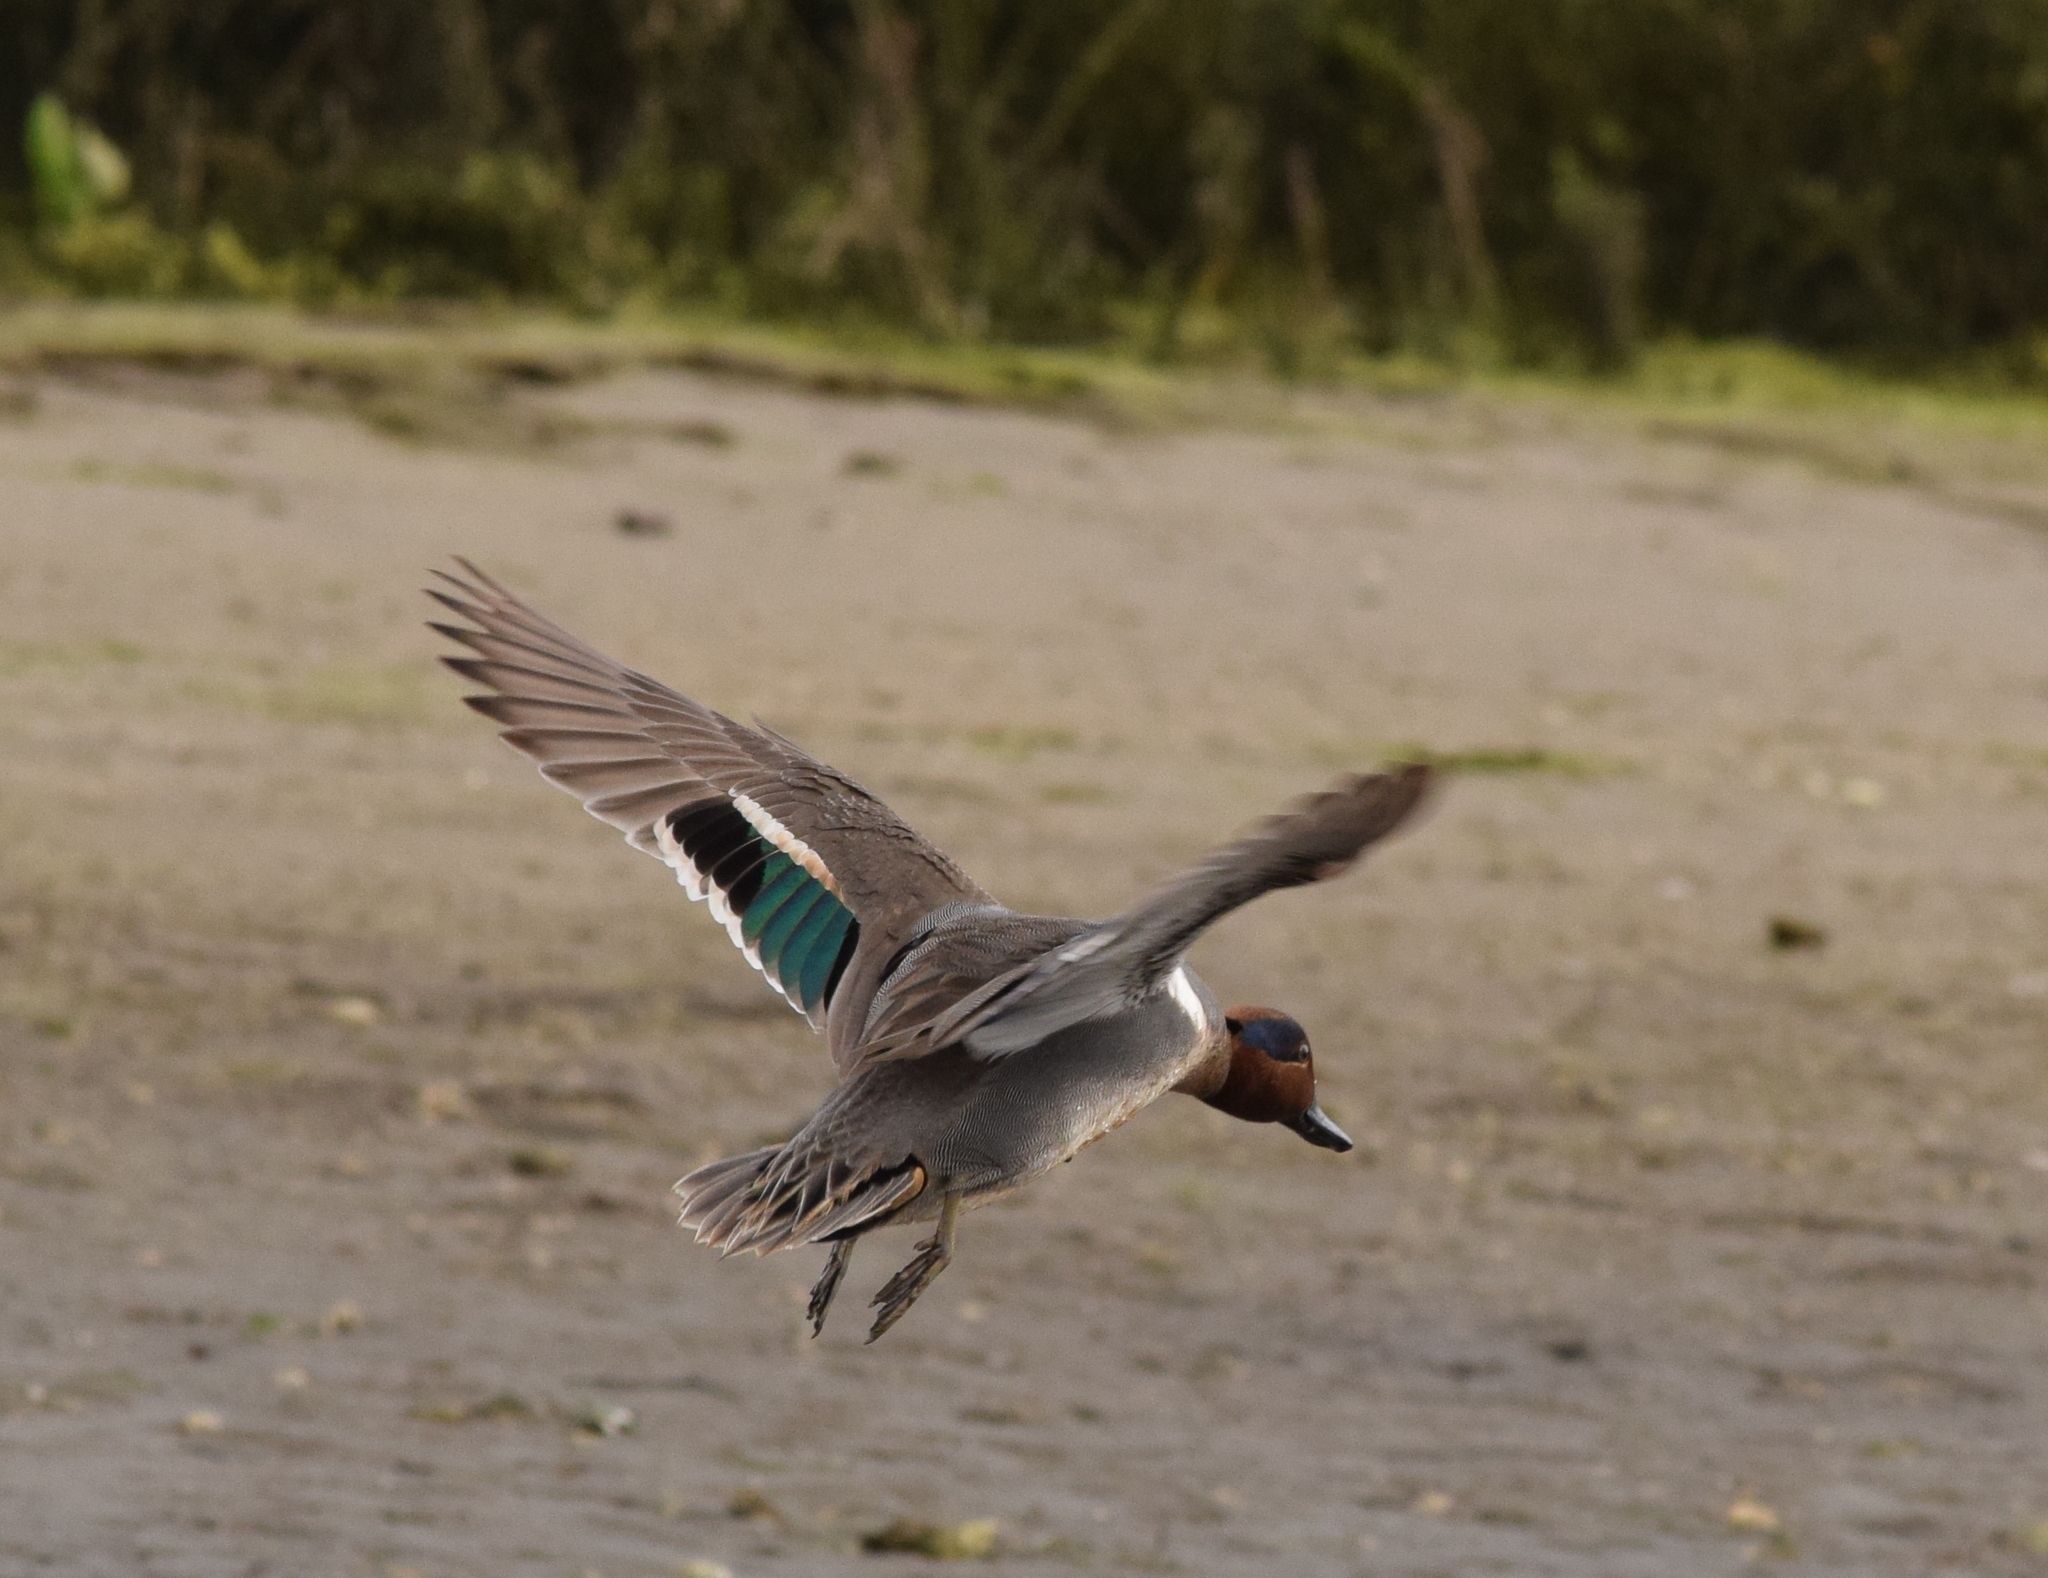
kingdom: Animalia
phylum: Chordata
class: Aves
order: Anseriformes
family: Anatidae
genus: Anas
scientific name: Anas crecca
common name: Eurasian teal
